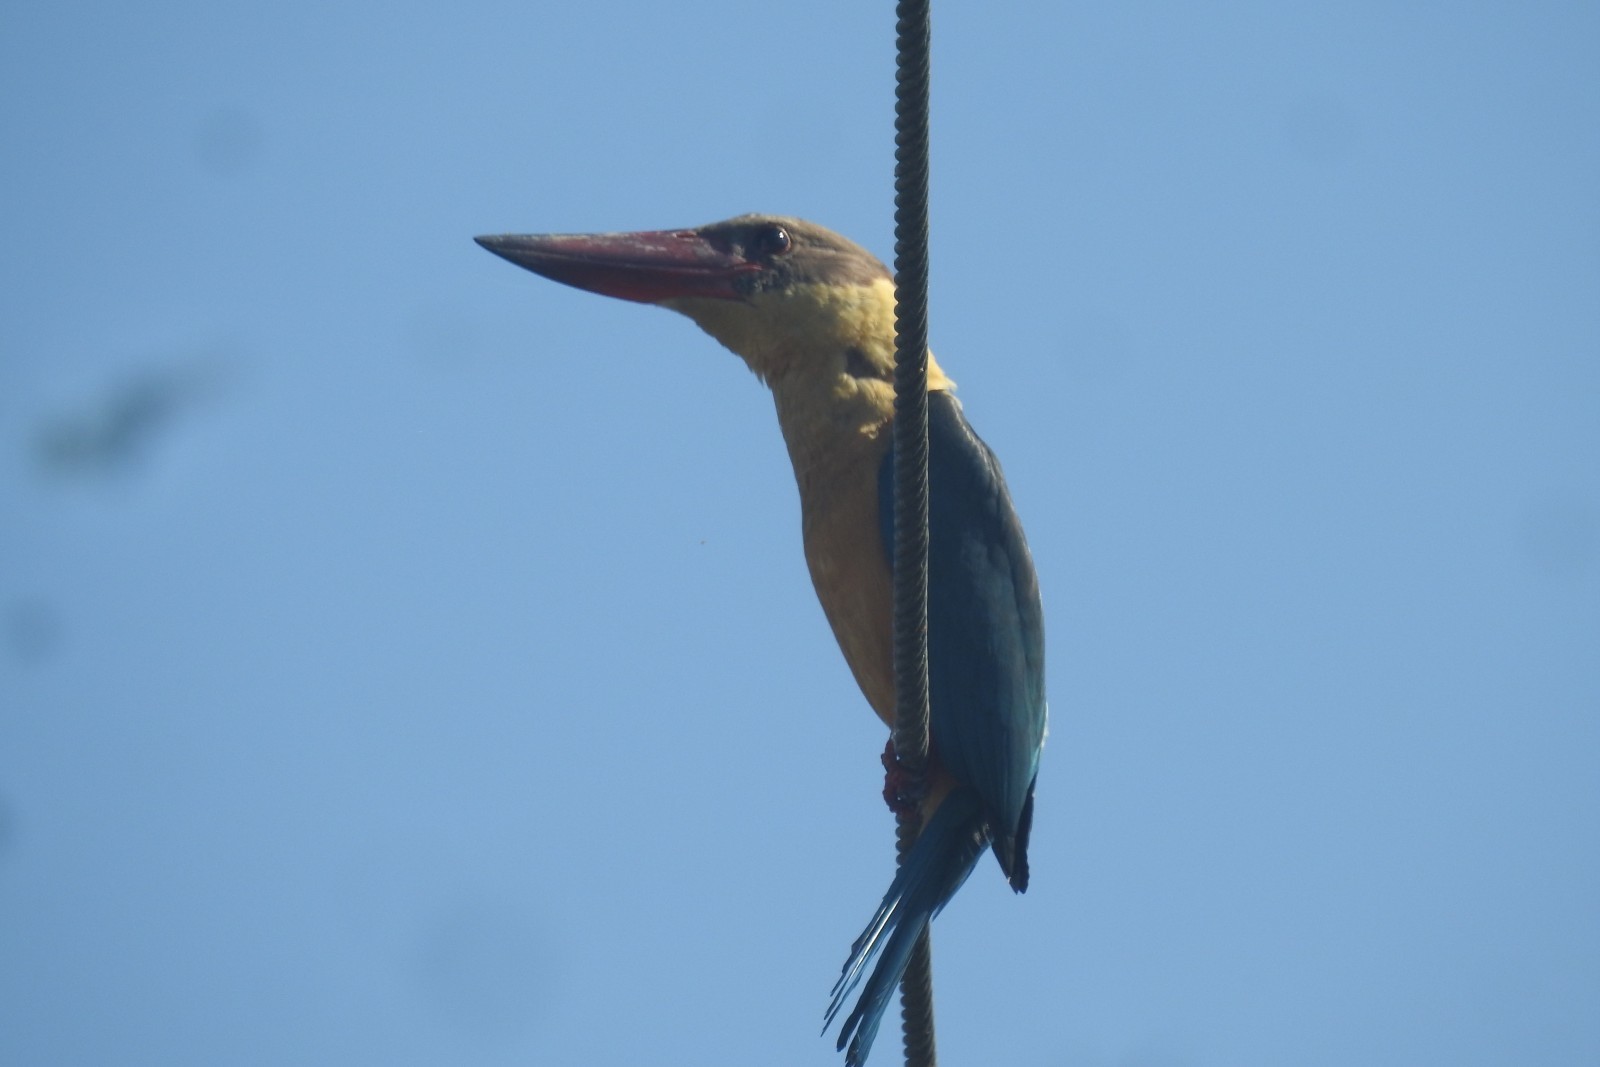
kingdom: Animalia
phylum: Chordata
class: Aves
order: Coraciiformes
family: Alcedinidae
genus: Pelargopsis
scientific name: Pelargopsis capensis
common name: Stork-billed kingfisher
